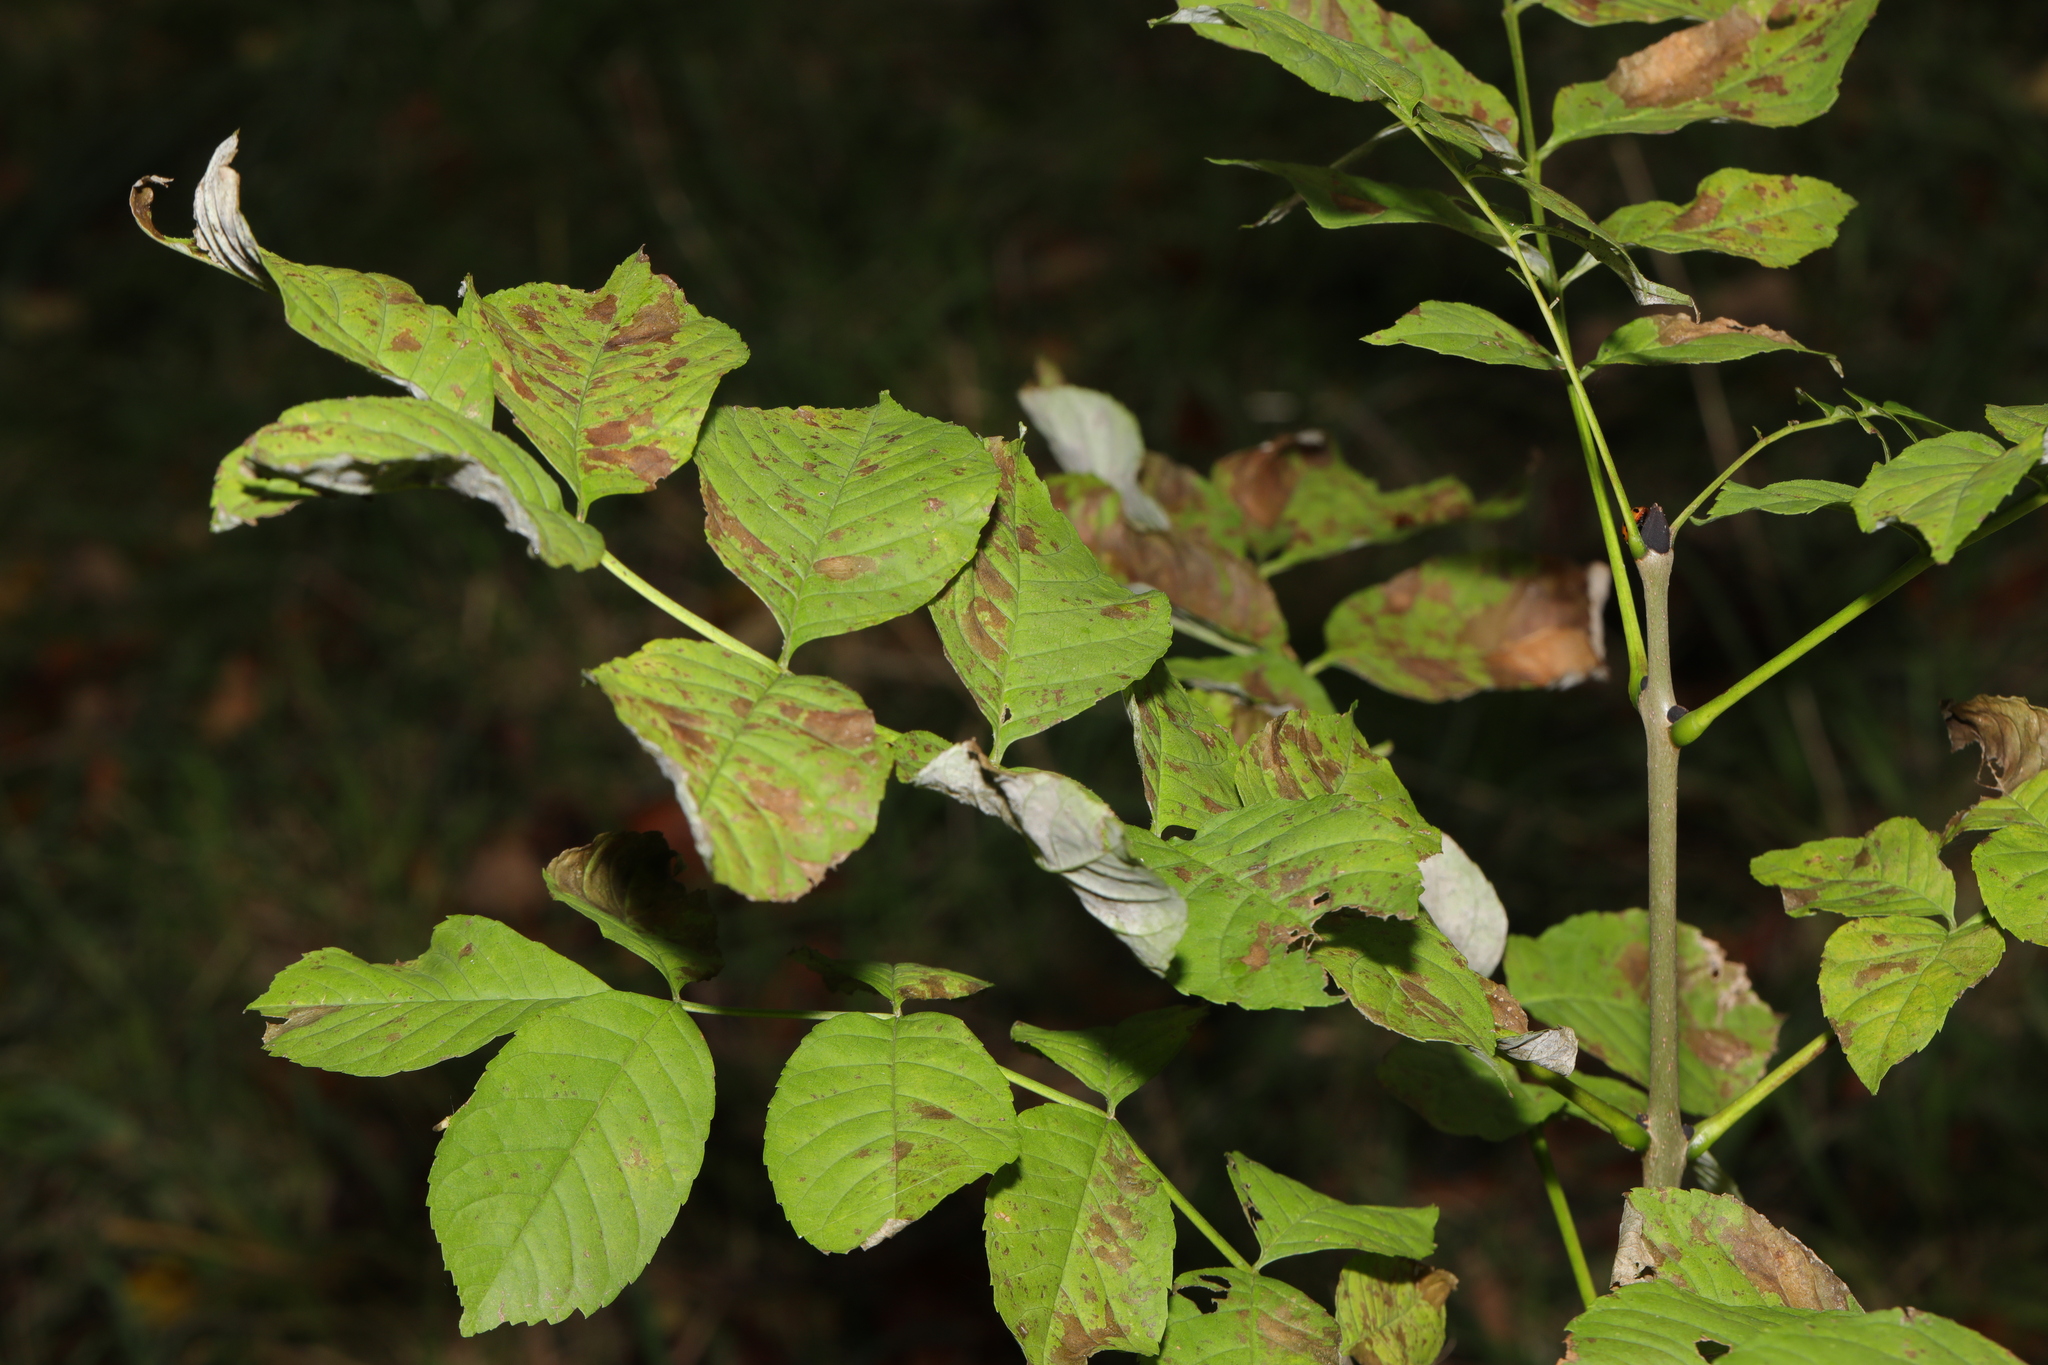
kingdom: Plantae
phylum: Tracheophyta
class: Magnoliopsida
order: Lamiales
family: Oleaceae
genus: Fraxinus
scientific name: Fraxinus excelsior
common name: European ash
